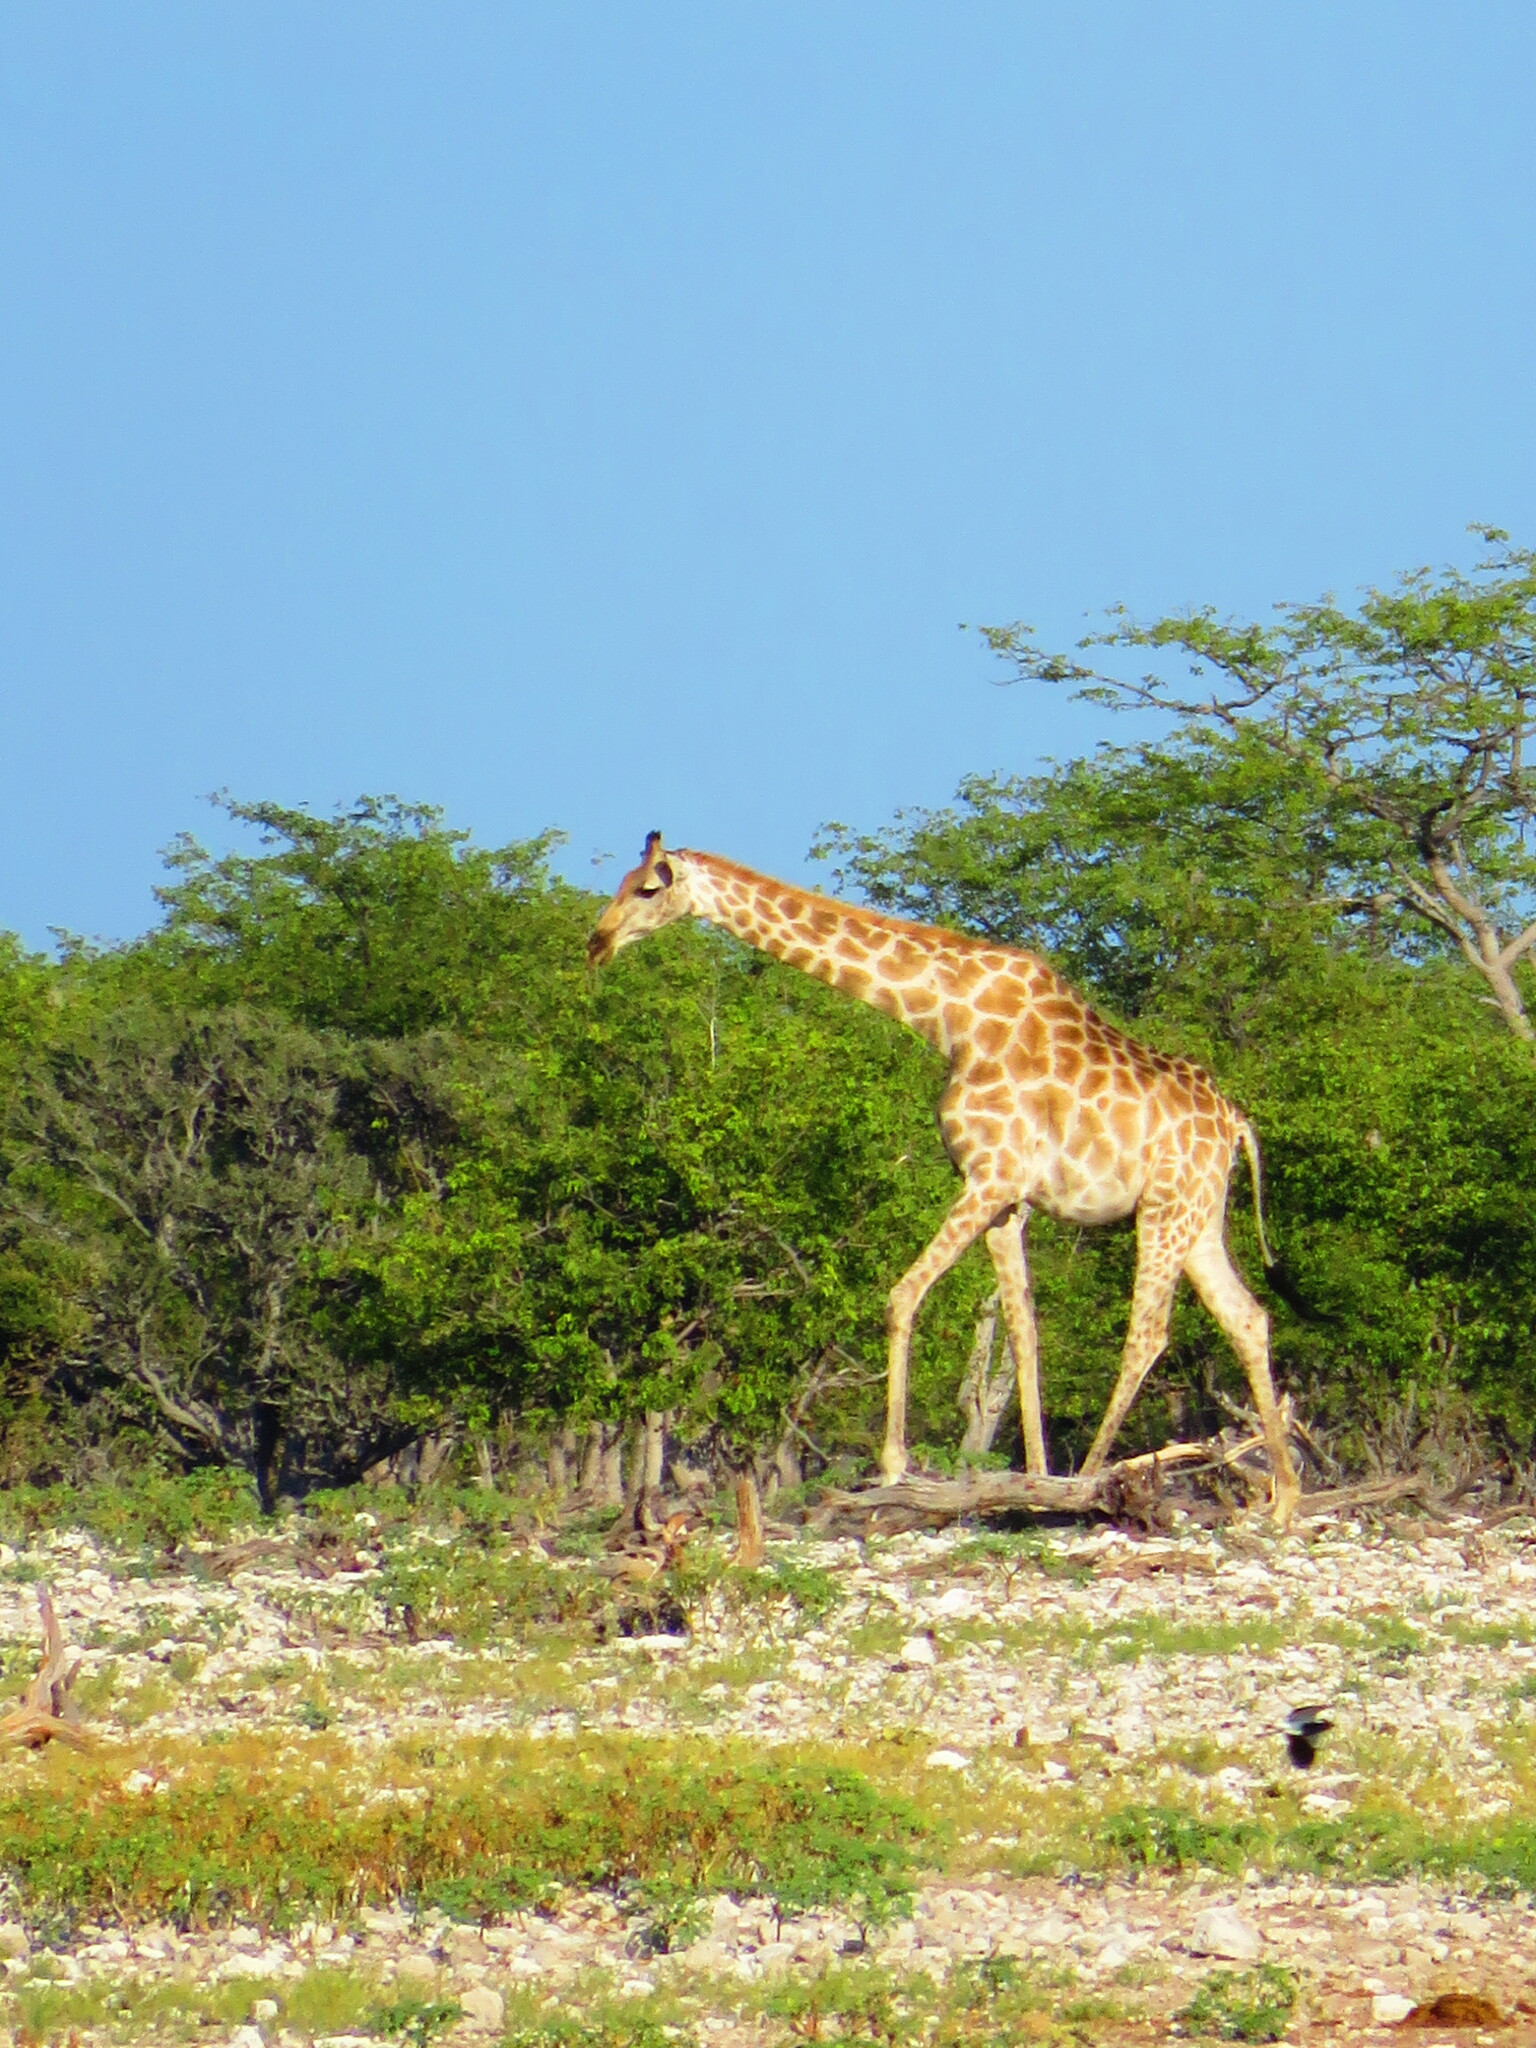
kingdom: Animalia
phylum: Chordata
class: Mammalia
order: Artiodactyla
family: Giraffidae
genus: Giraffa
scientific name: Giraffa giraffa
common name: Southern giraffe
